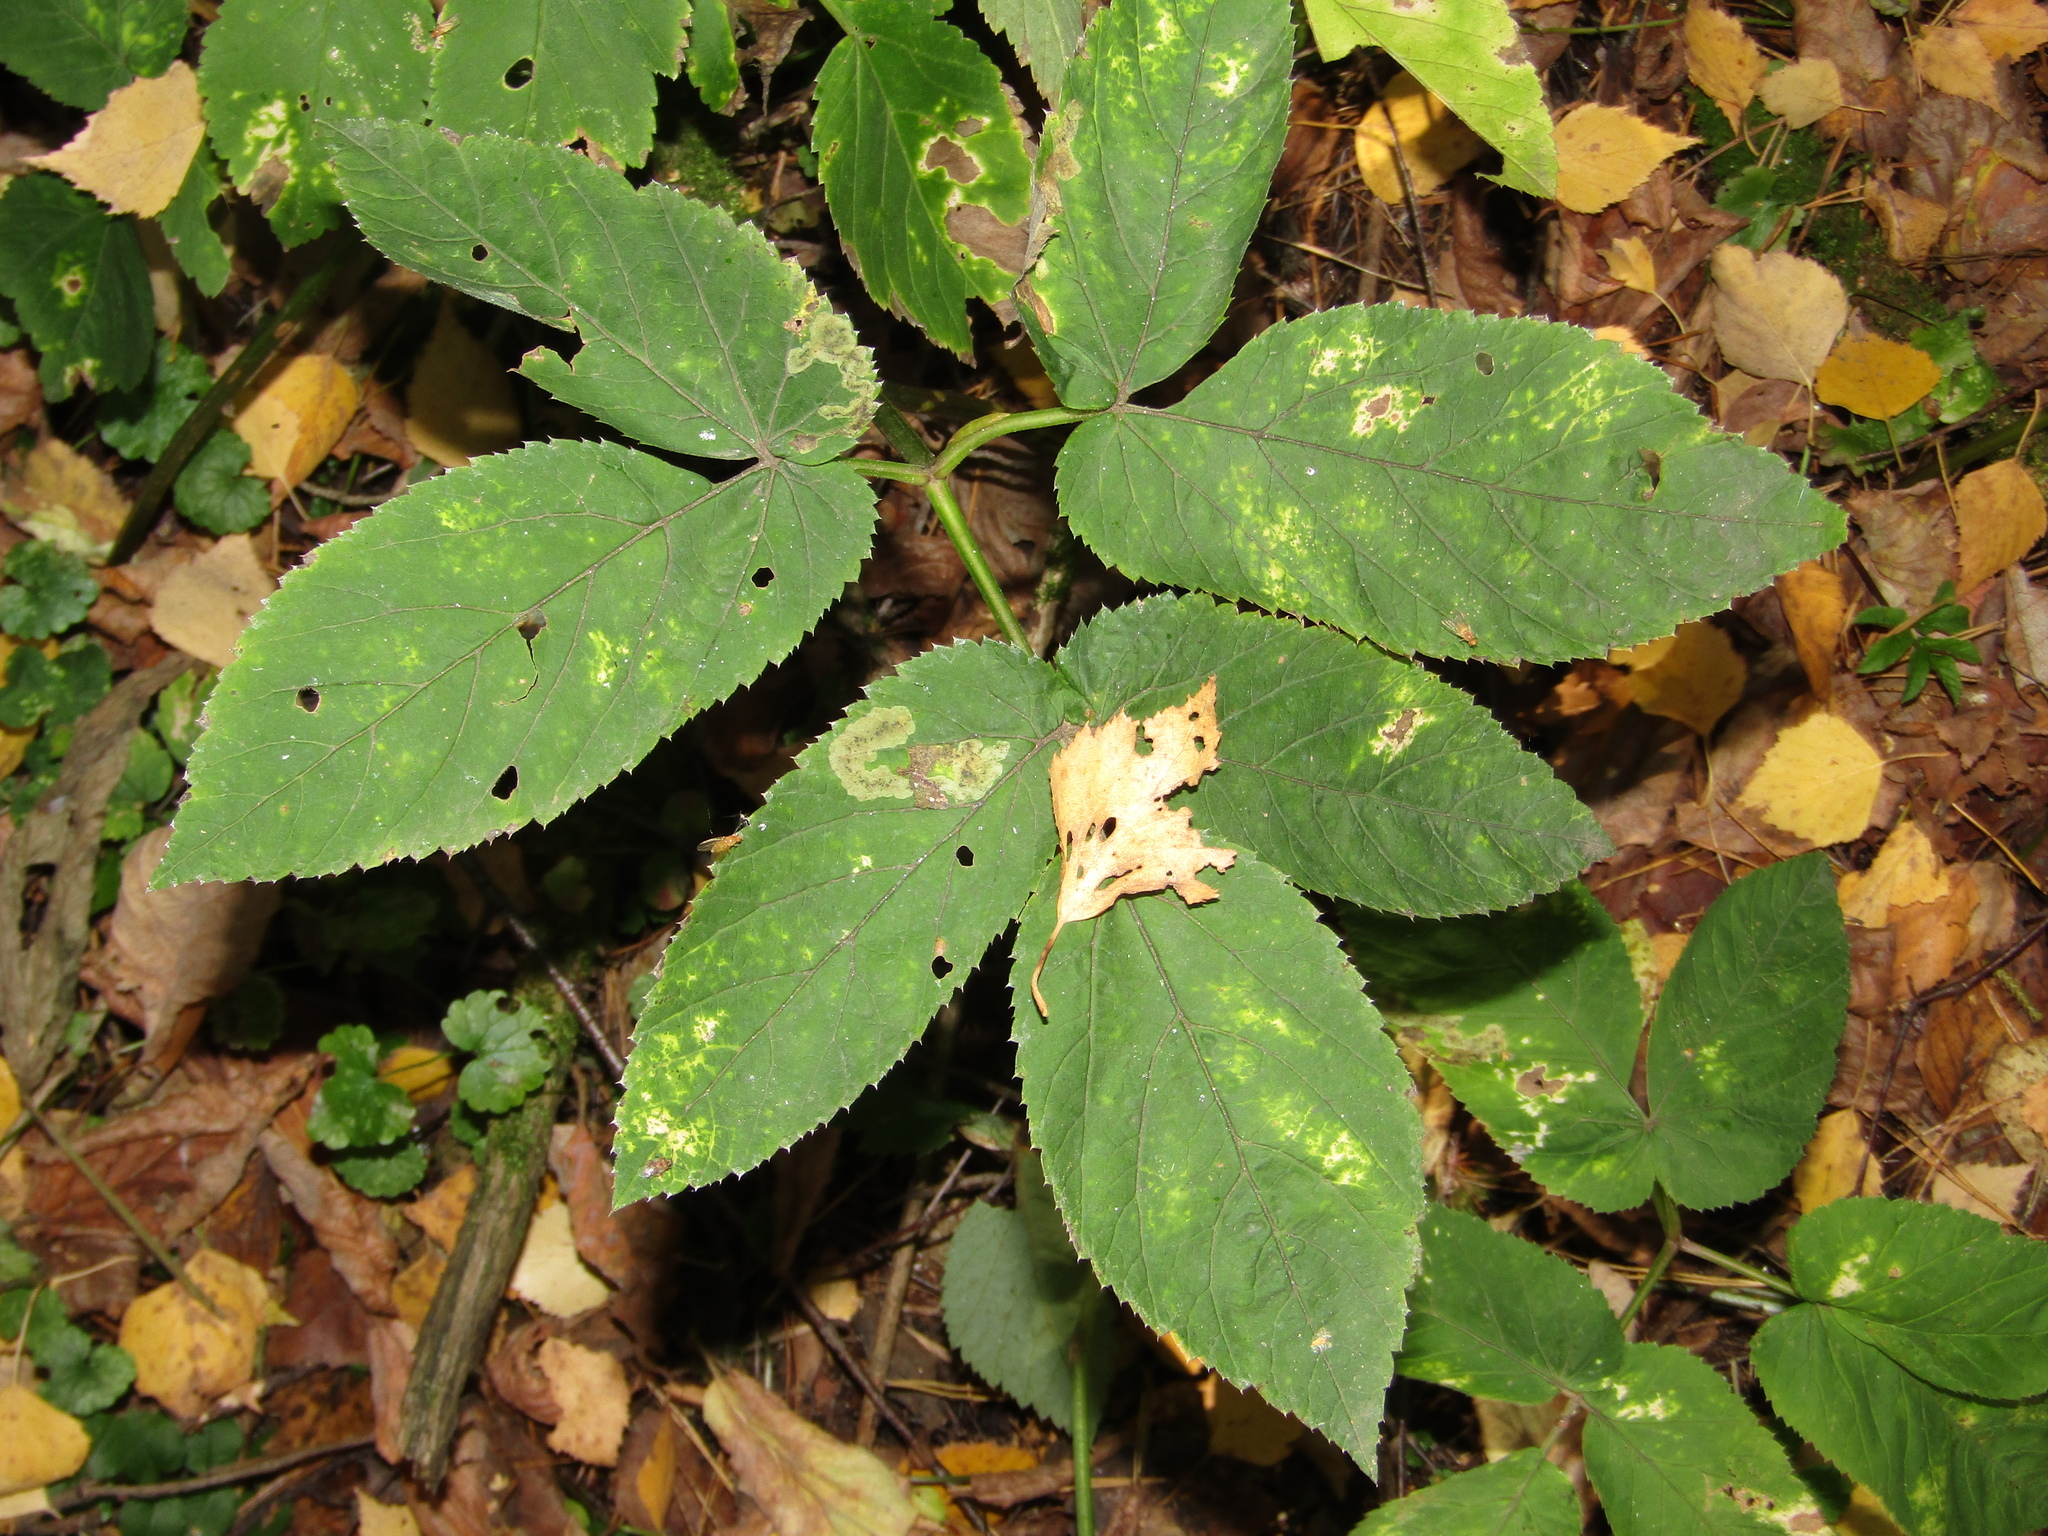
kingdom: Plantae
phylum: Tracheophyta
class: Magnoliopsida
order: Apiales
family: Apiaceae
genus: Aegopodium
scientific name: Aegopodium podagraria
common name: Ground-elder
